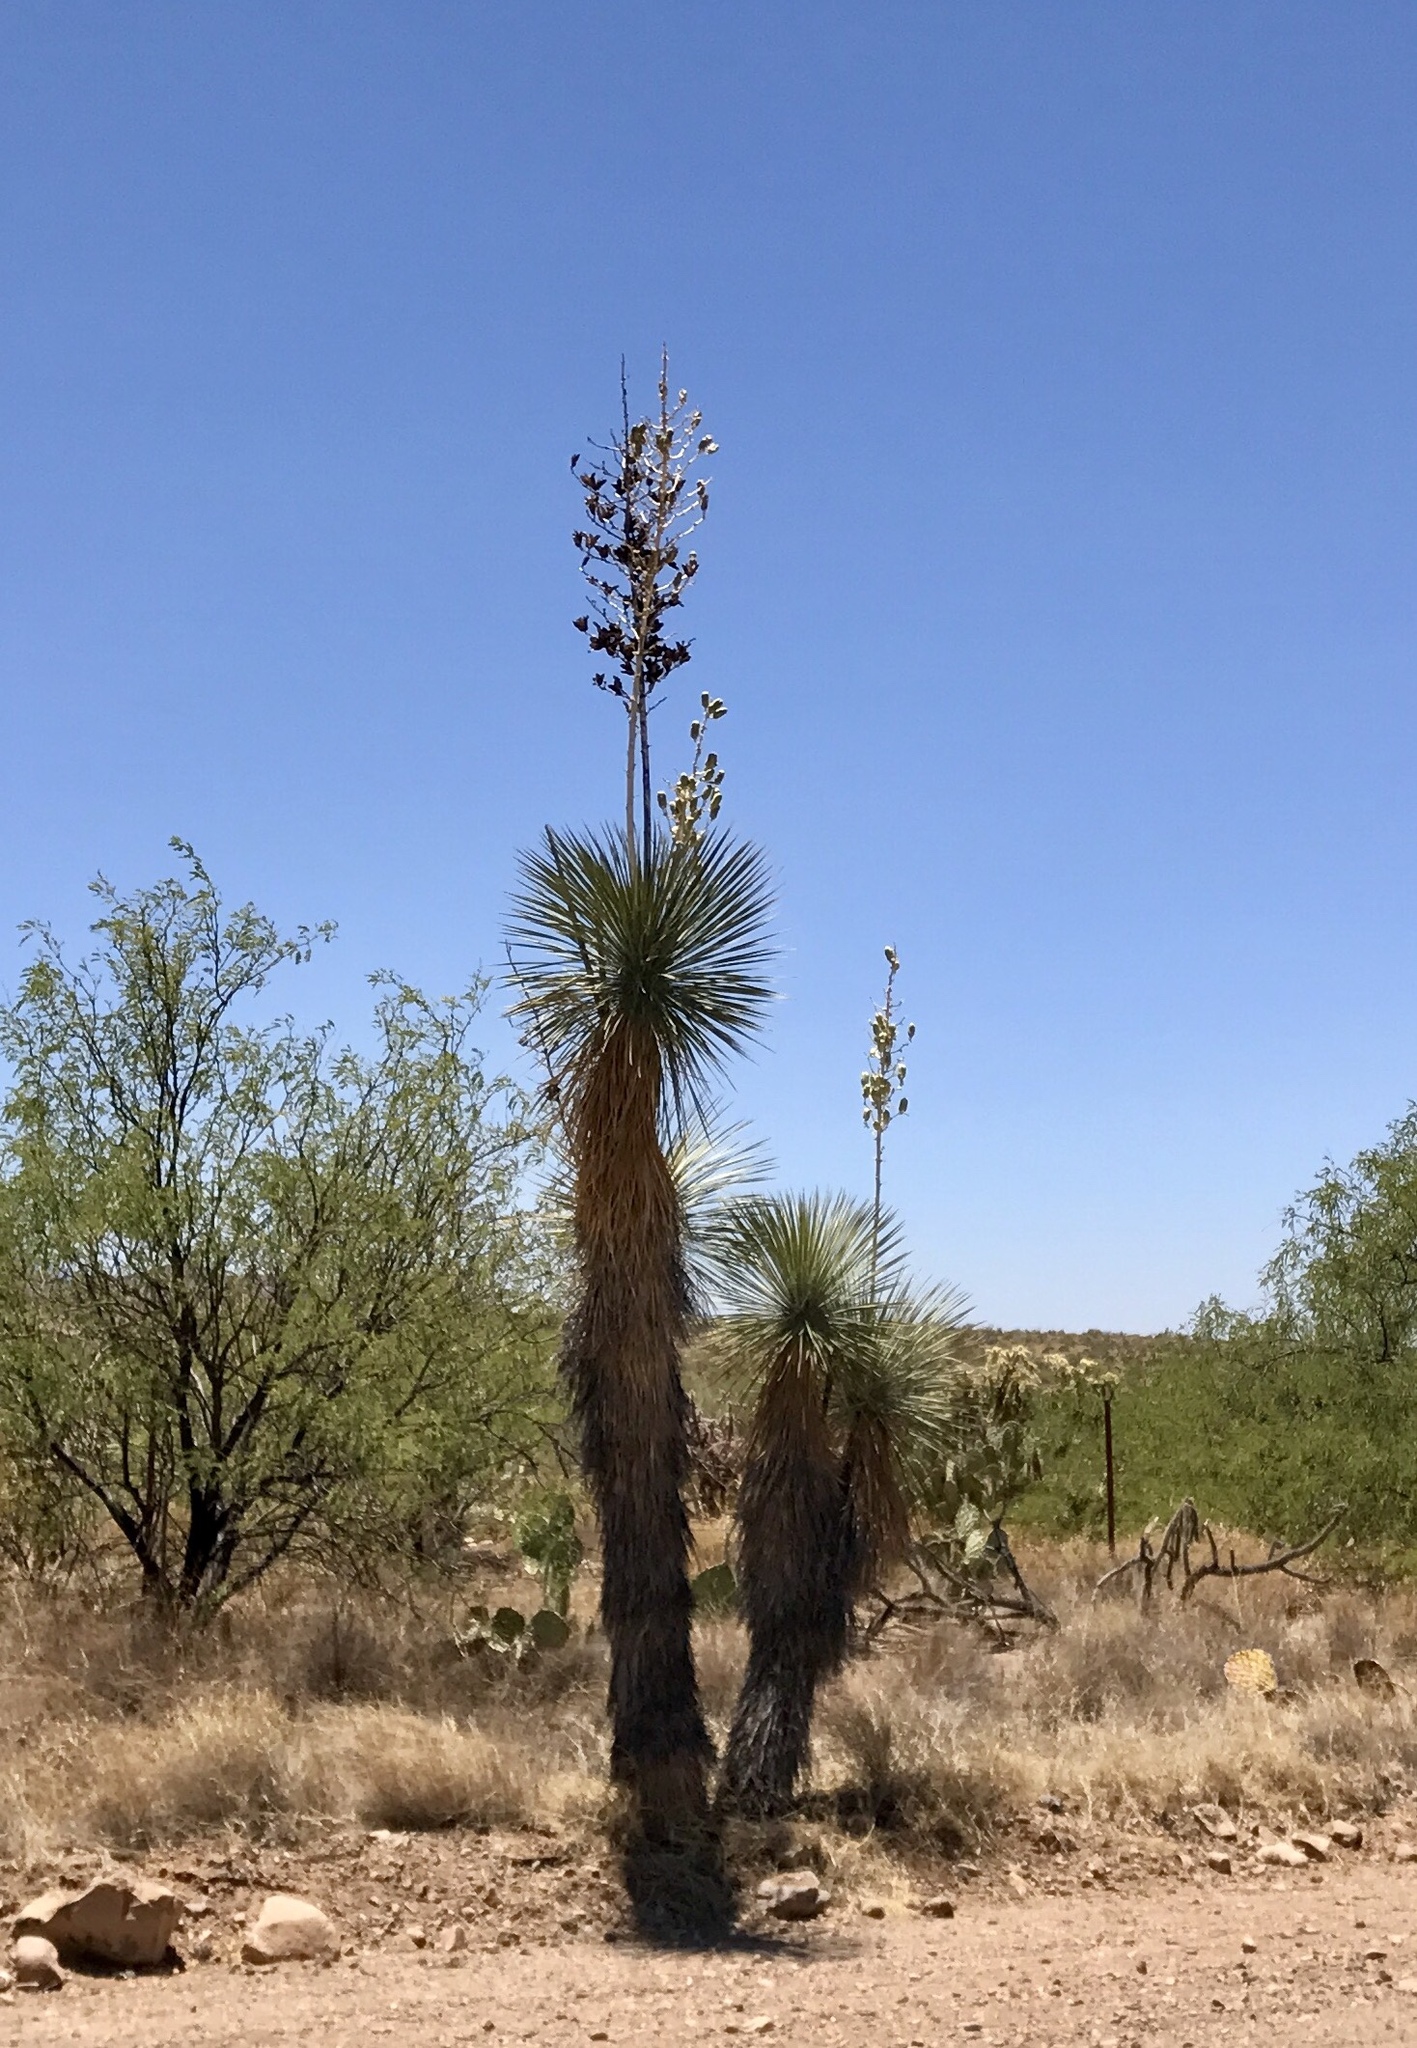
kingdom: Plantae
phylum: Tracheophyta
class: Liliopsida
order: Asparagales
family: Asparagaceae
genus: Yucca
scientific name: Yucca elata
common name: Palmella
